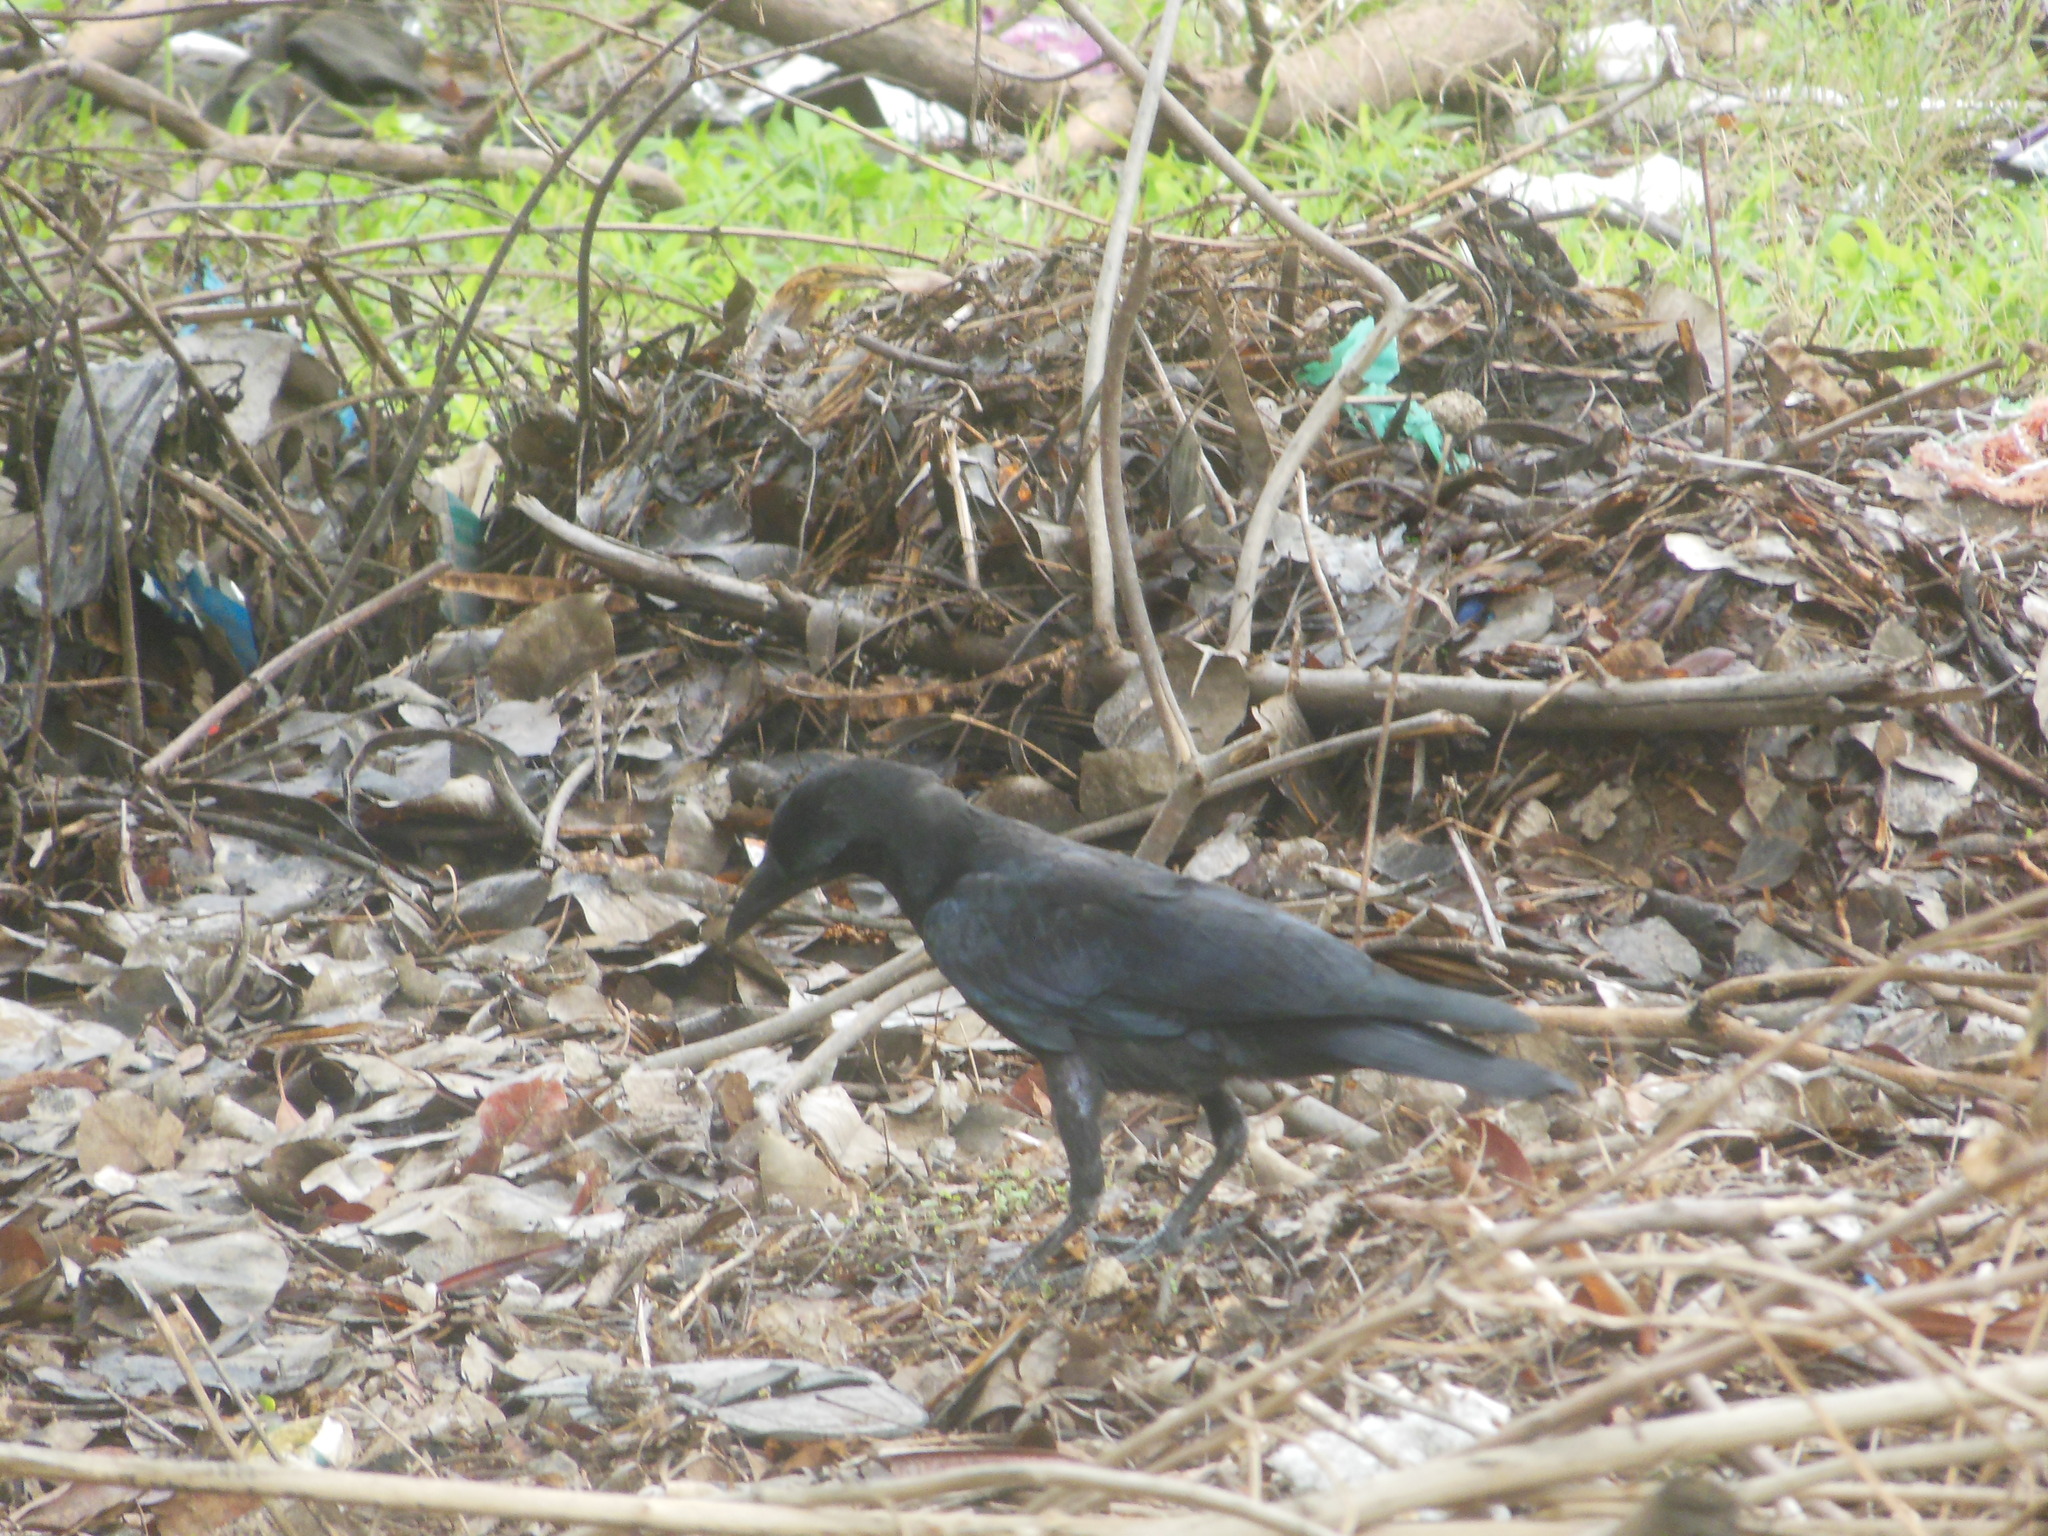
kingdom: Animalia
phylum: Chordata
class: Aves
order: Passeriformes
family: Corvidae
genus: Corvus
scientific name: Corvus macrorhynchos
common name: Large-billed crow
